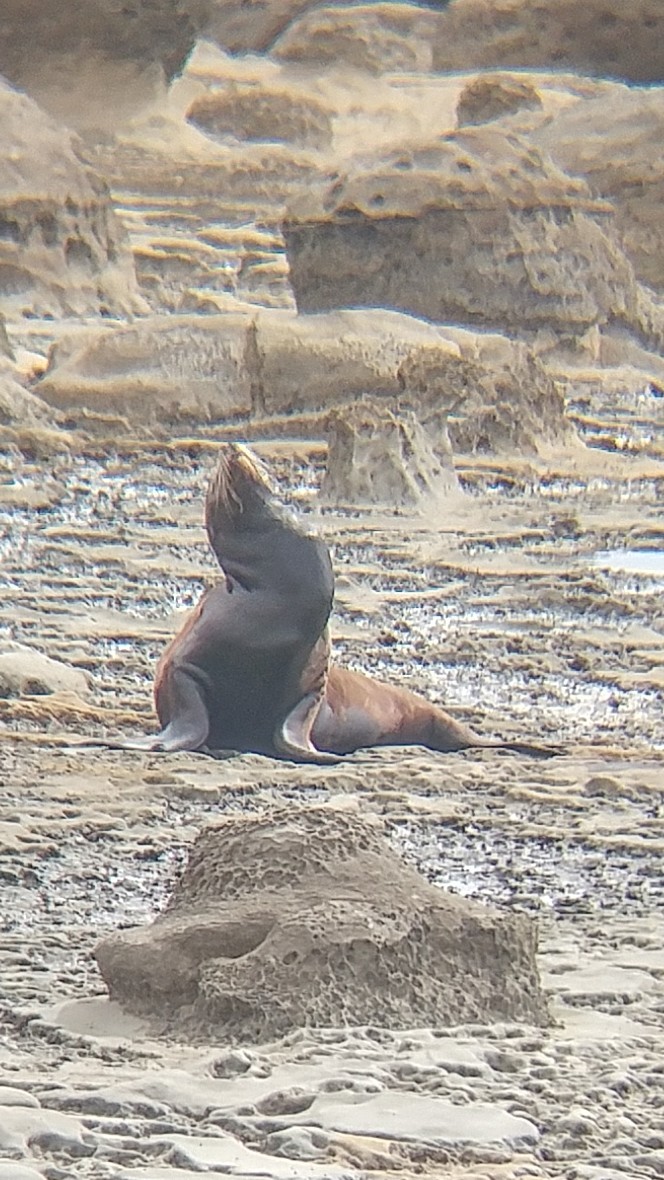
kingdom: Animalia
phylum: Chordata
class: Mammalia
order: Carnivora
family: Otariidae
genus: Zalophus
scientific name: Zalophus californianus
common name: California sea lion
